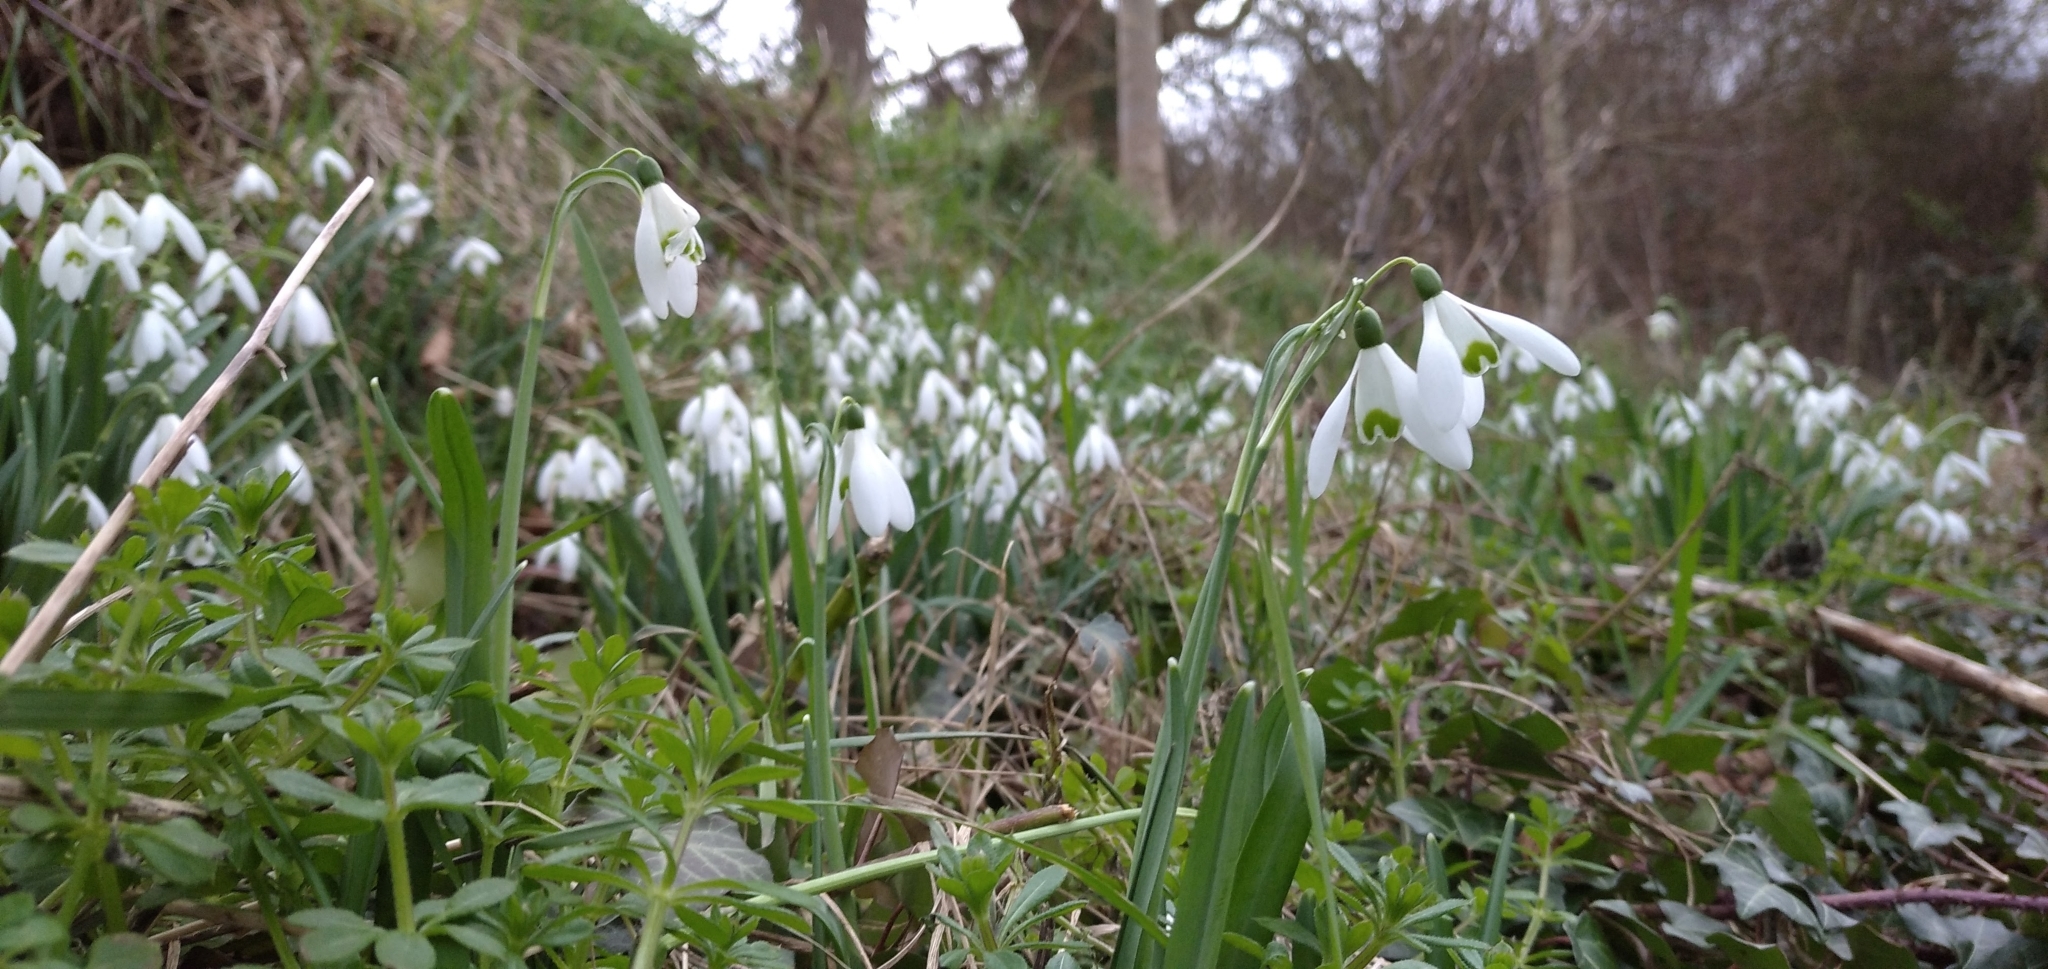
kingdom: Plantae
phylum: Tracheophyta
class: Liliopsida
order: Asparagales
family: Amaryllidaceae
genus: Galanthus
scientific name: Galanthus nivalis
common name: Snowdrop
